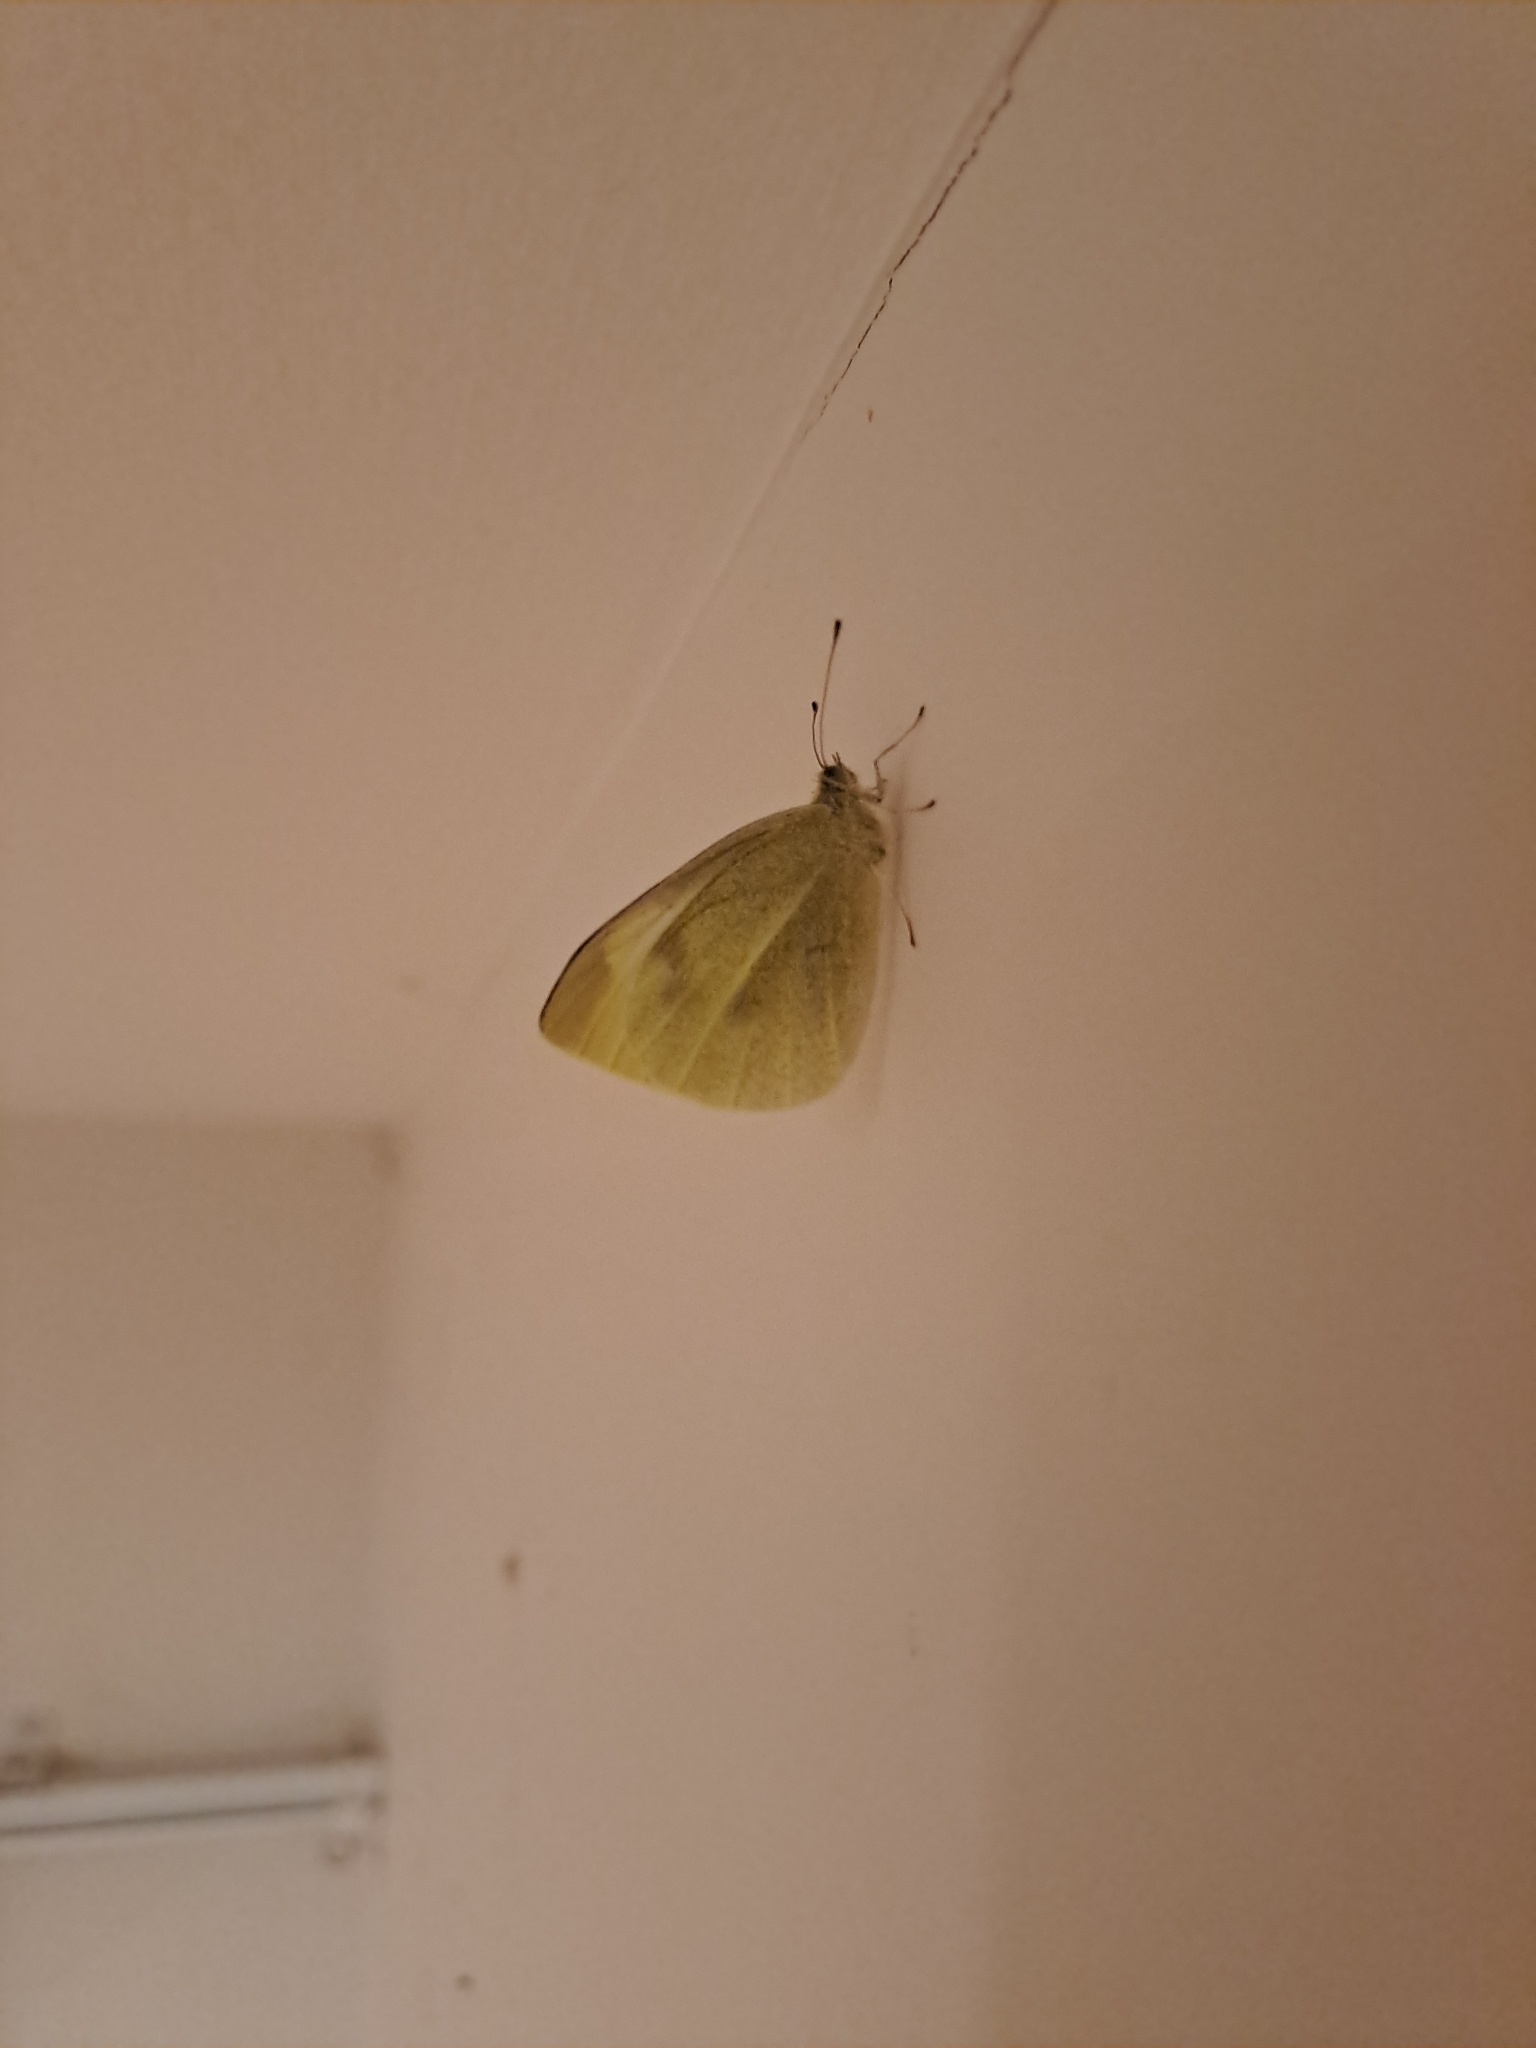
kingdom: Animalia
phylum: Arthropoda
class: Insecta
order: Lepidoptera
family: Pieridae
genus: Pieris
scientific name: Pieris rapae
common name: Small white
